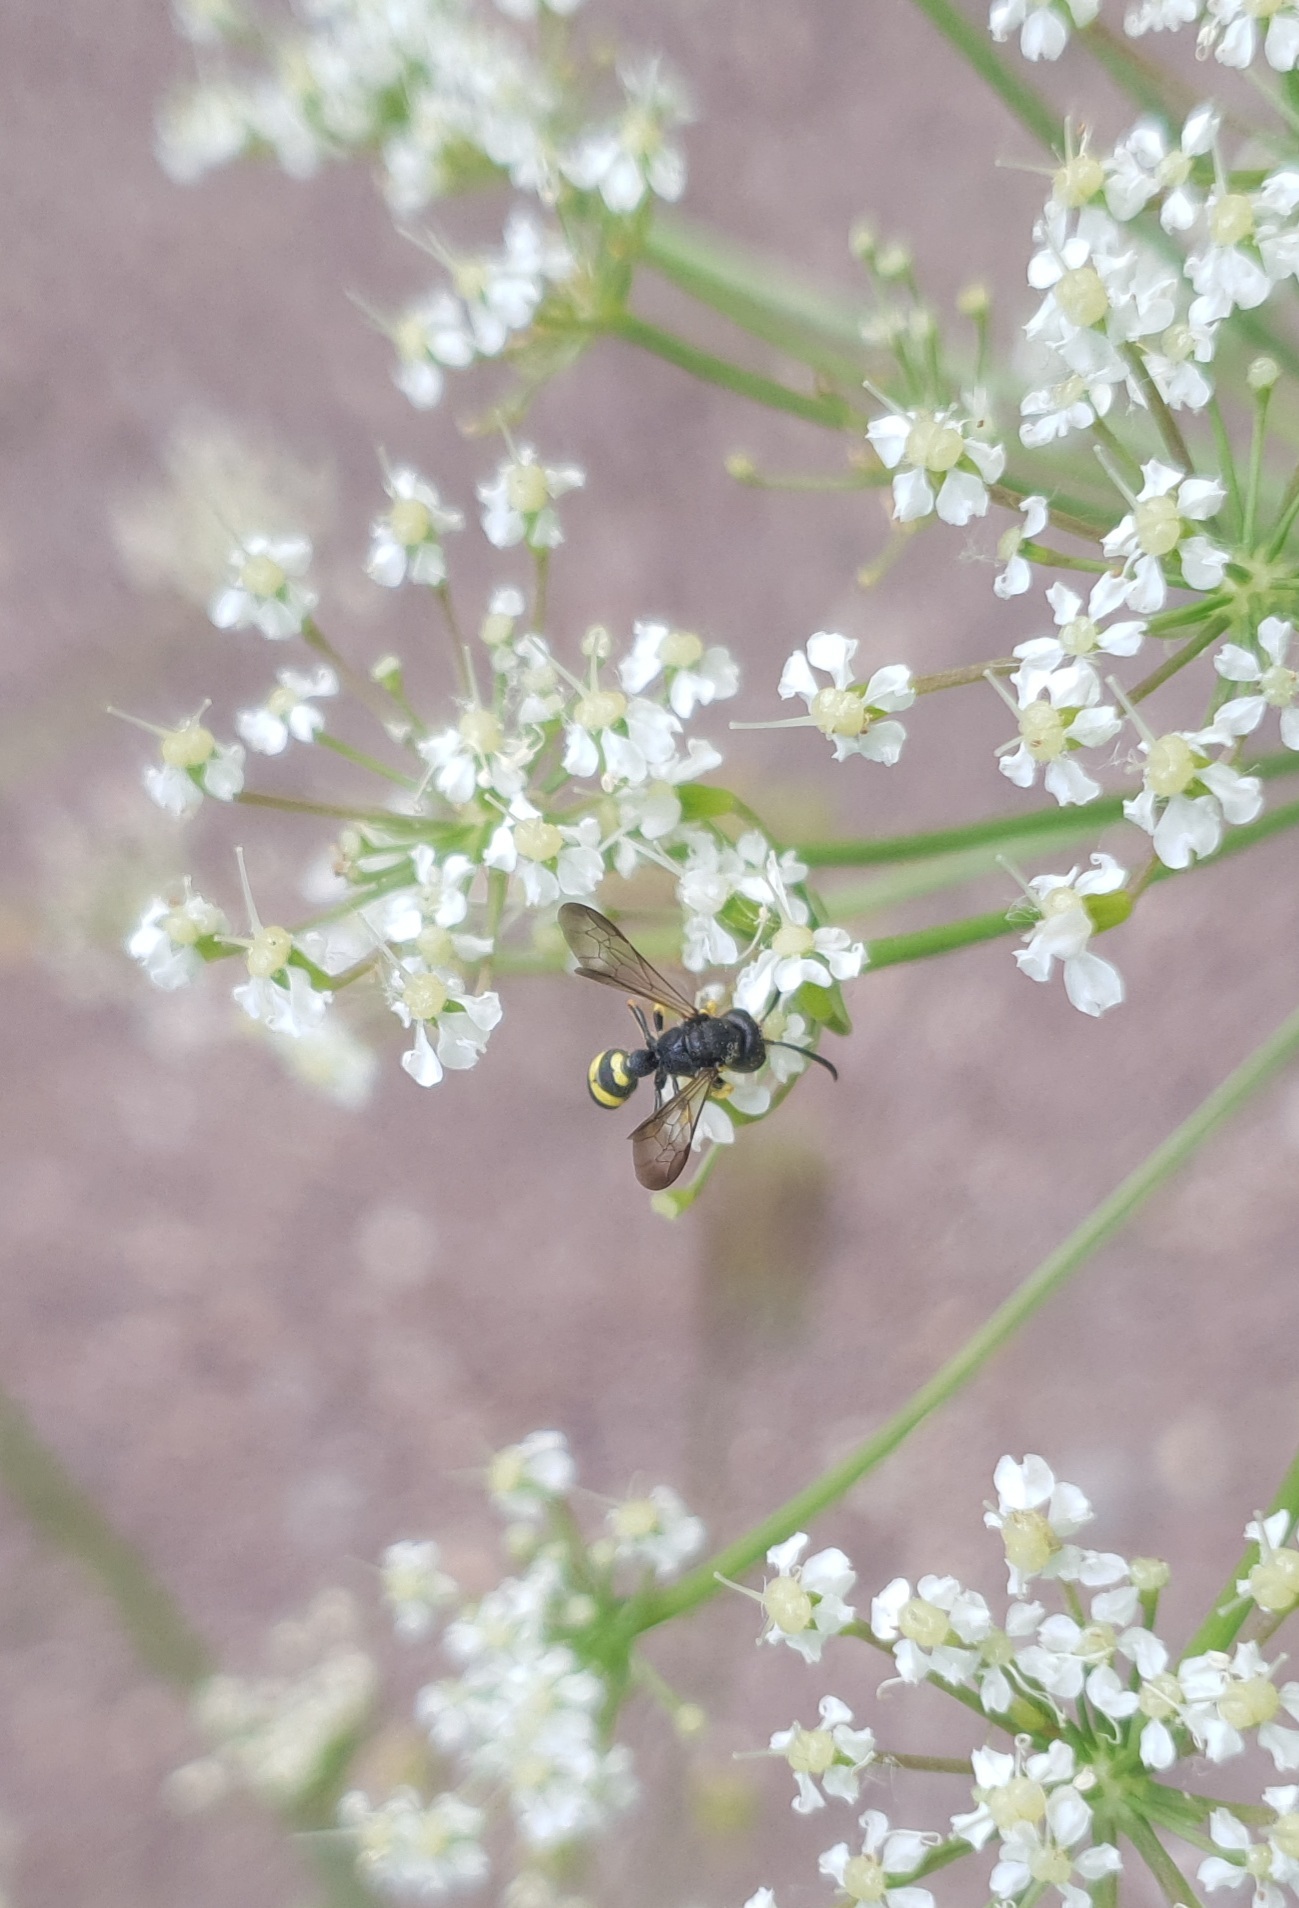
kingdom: Animalia
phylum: Arthropoda
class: Insecta
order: Hymenoptera
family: Crabronidae
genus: Cerceris
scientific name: Cerceris rybyensis
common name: Ornate tailed digger wasp
